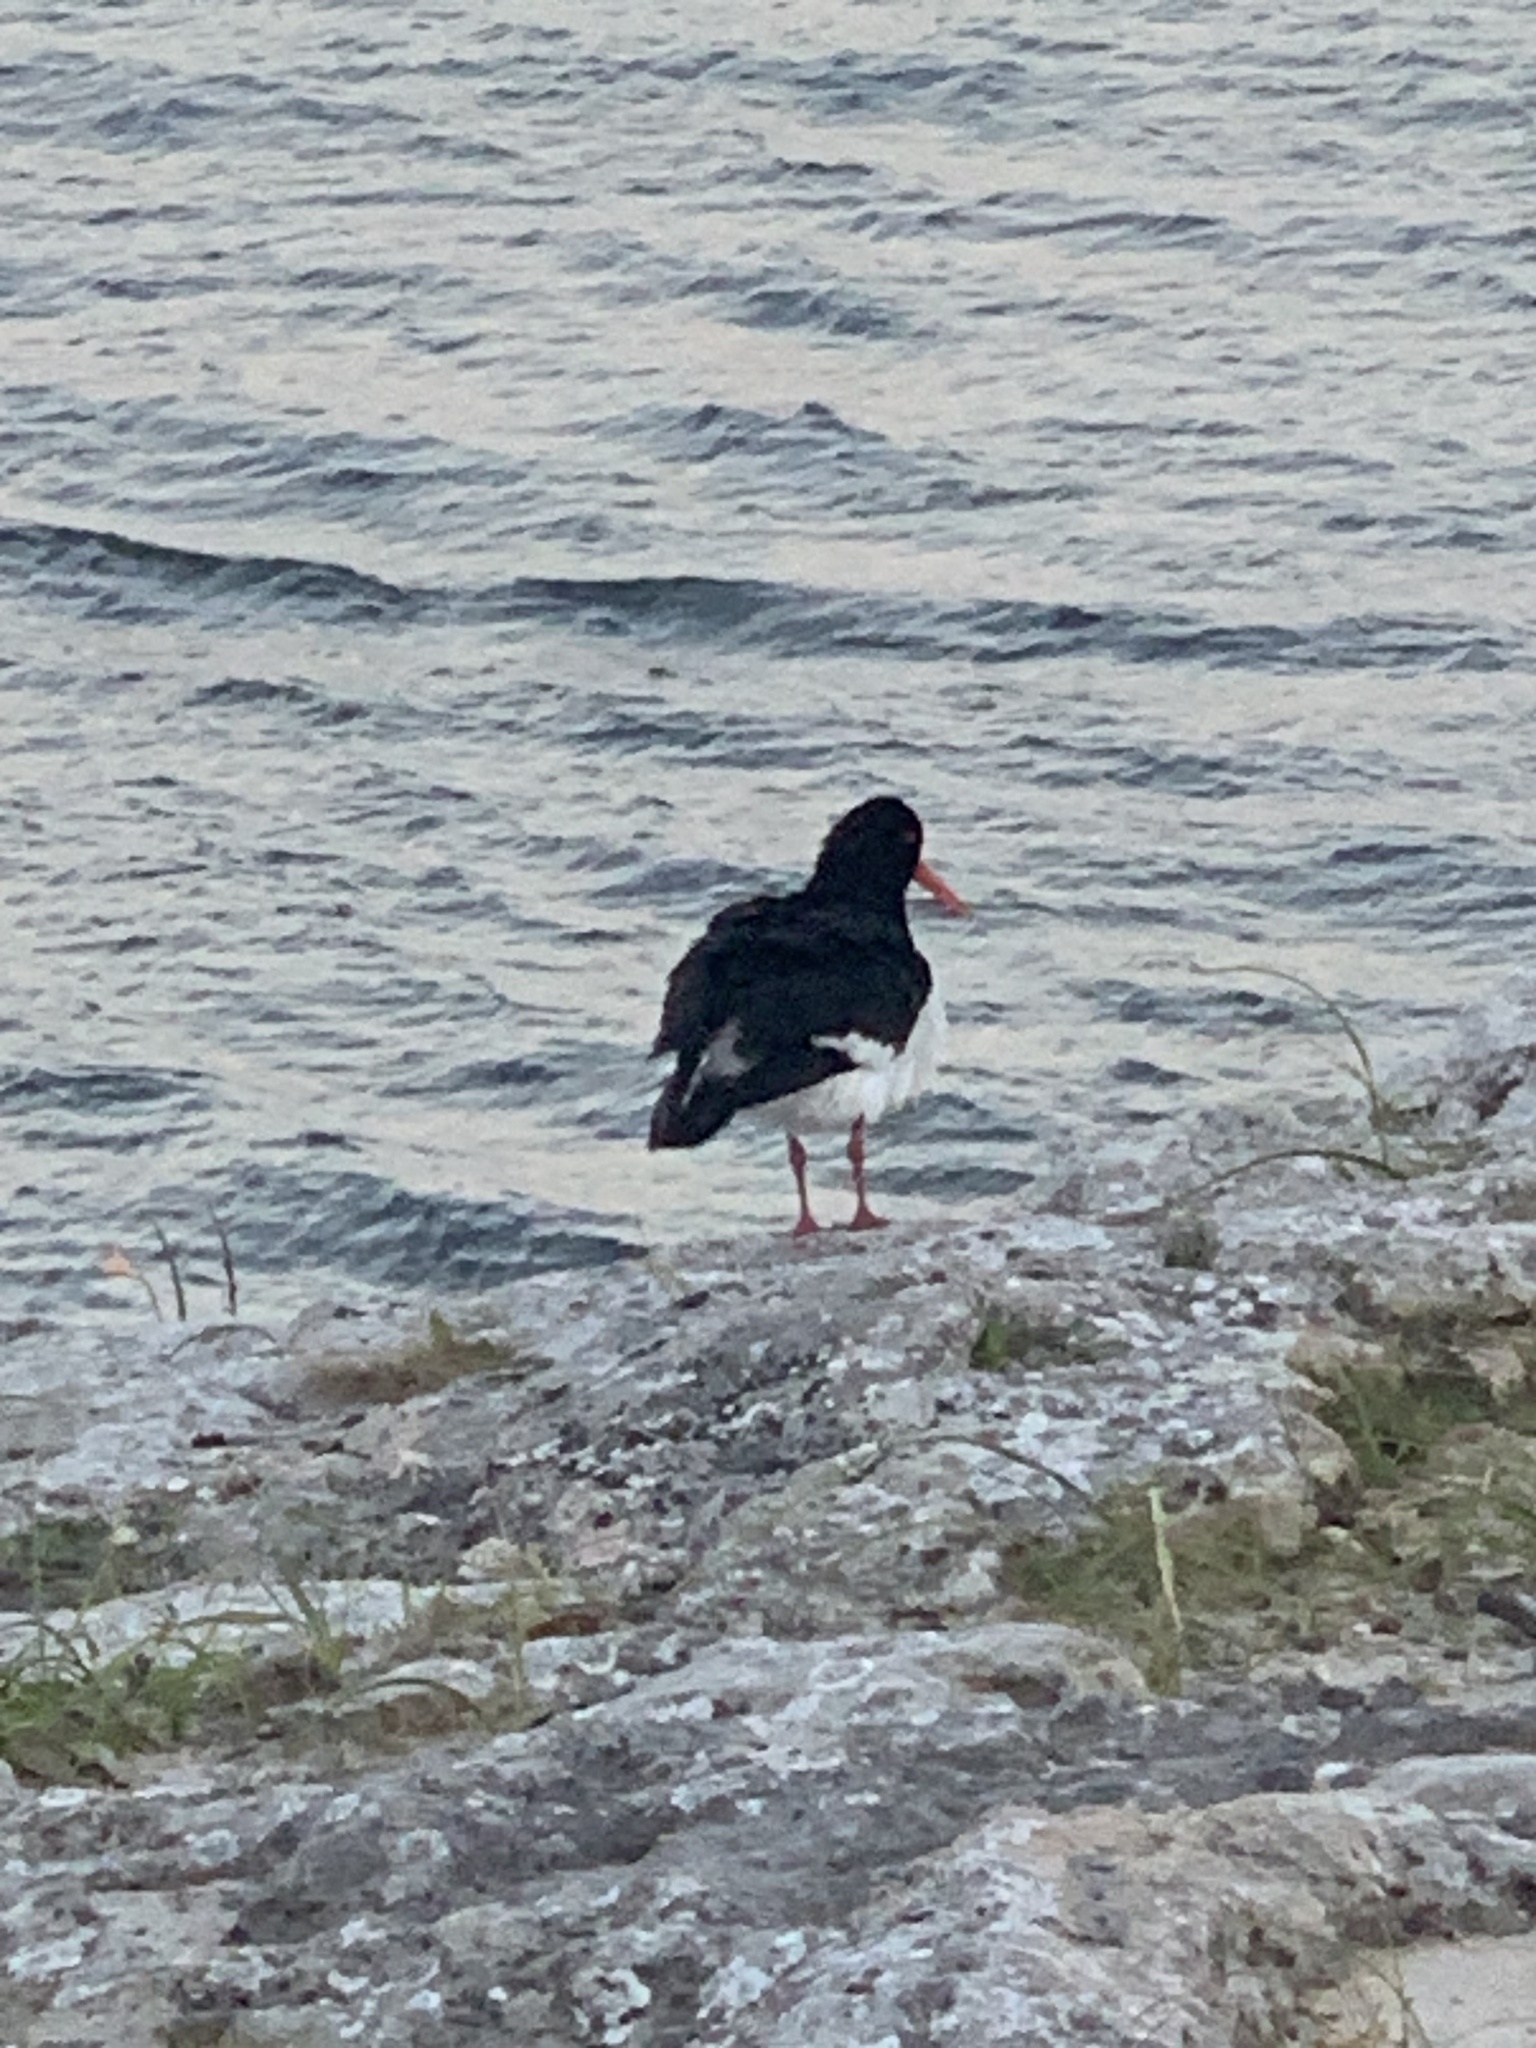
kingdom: Animalia
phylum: Chordata
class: Aves
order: Charadriiformes
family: Haematopodidae
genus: Haematopus
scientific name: Haematopus longirostris
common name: Pied oystercatcher
